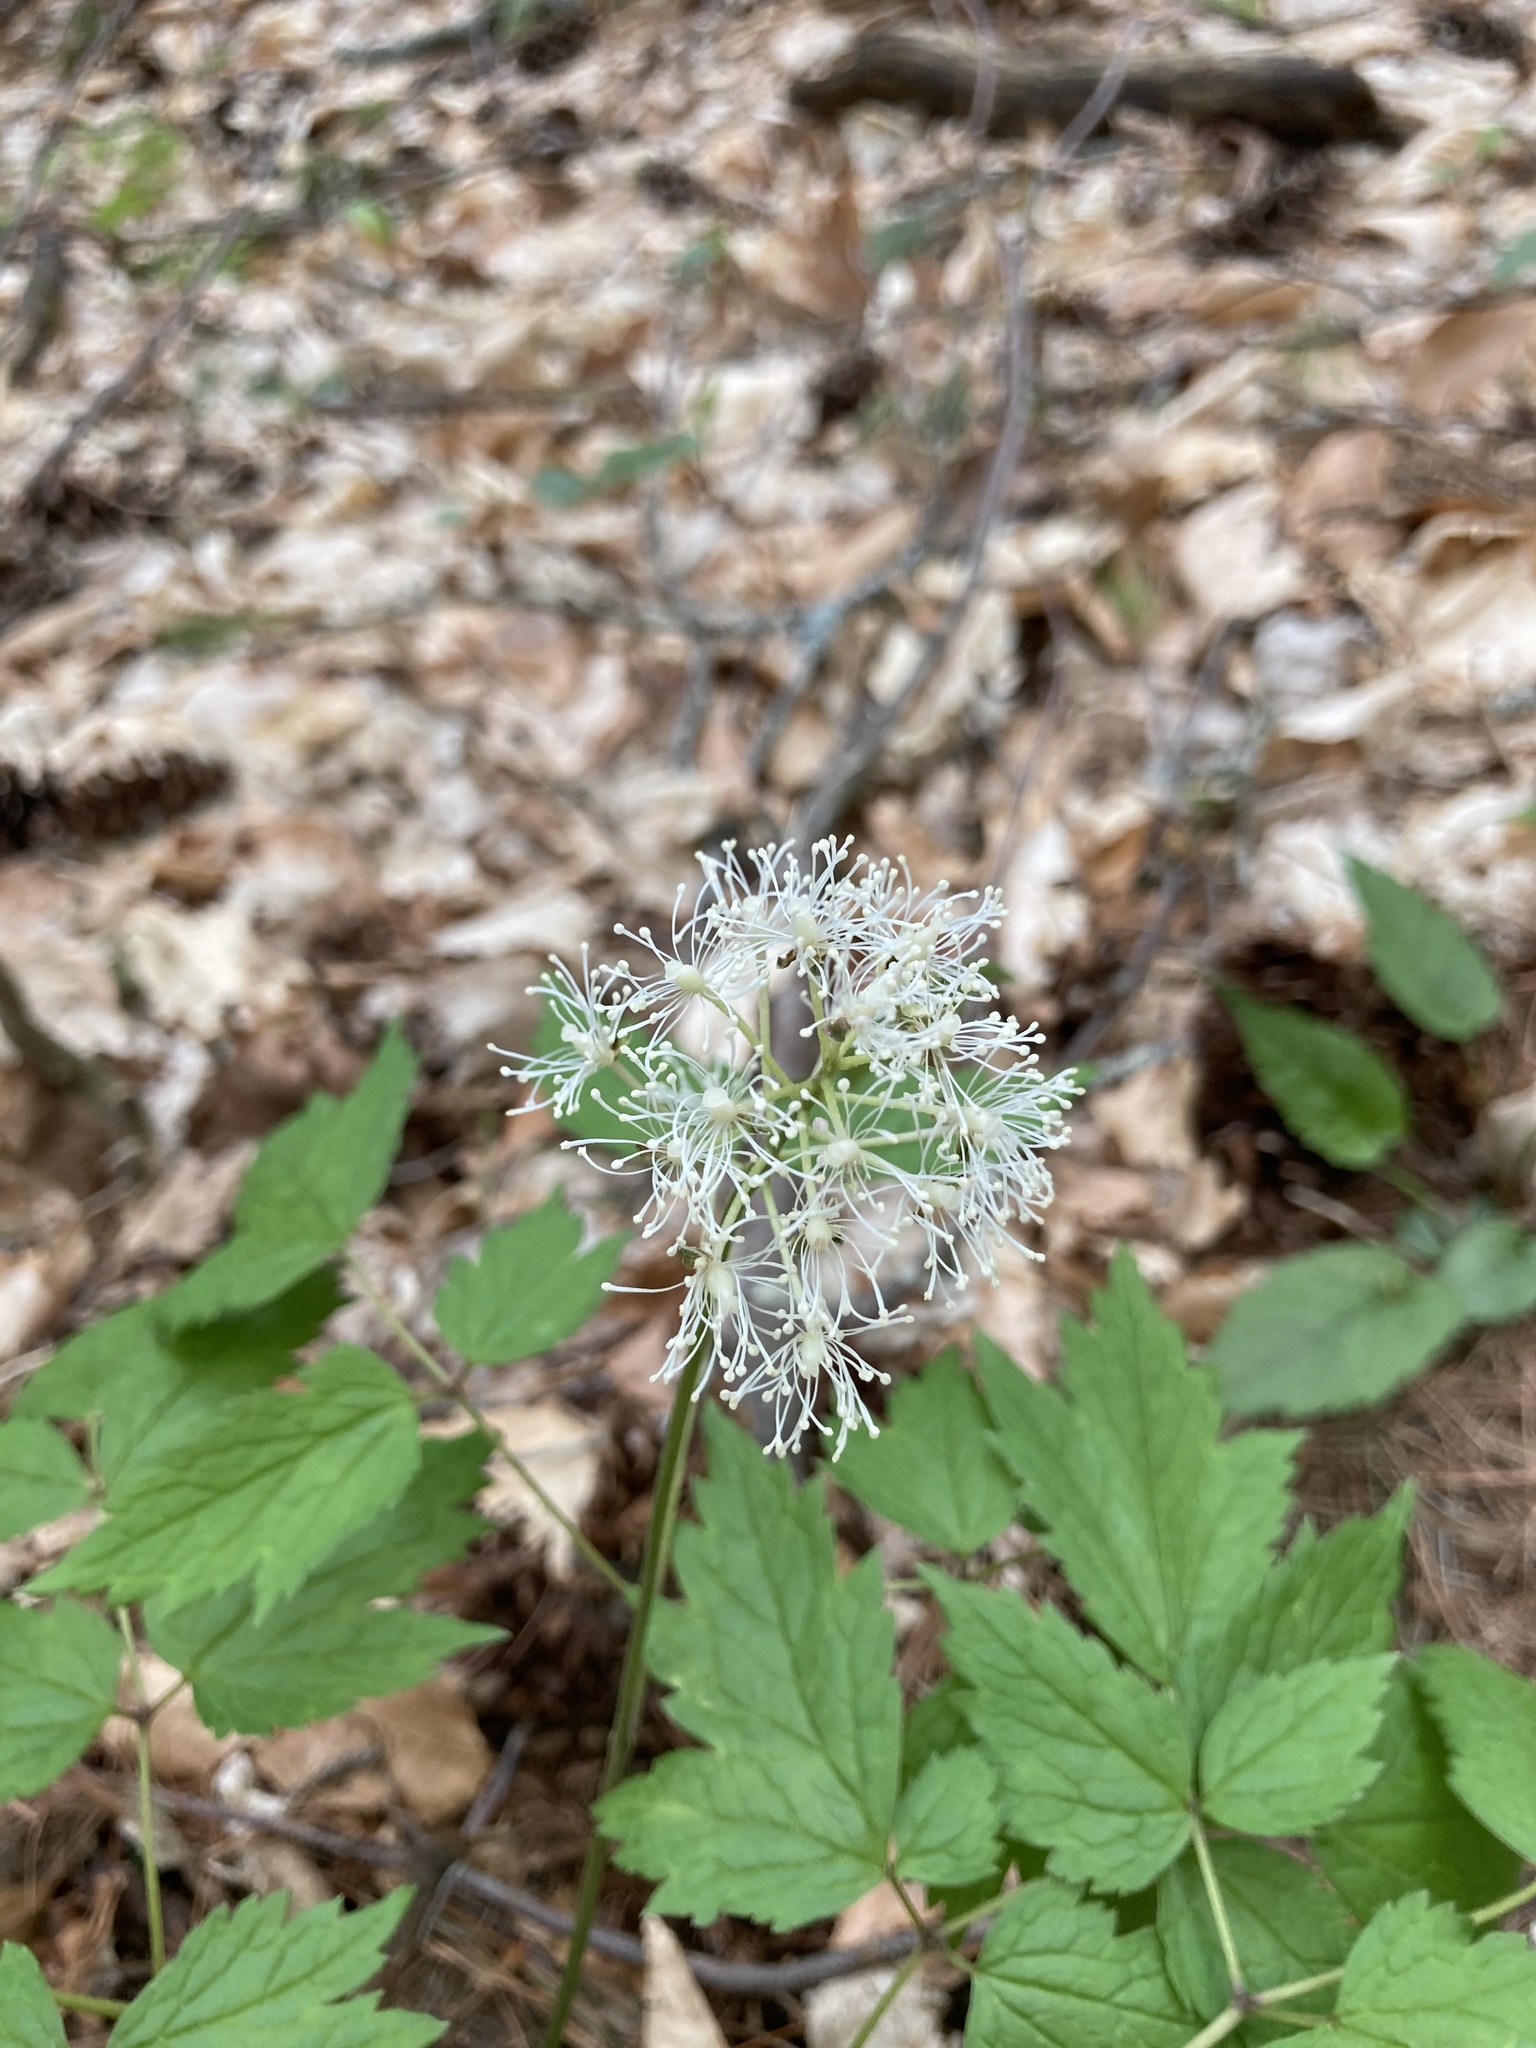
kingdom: Plantae
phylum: Tracheophyta
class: Magnoliopsida
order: Ranunculales
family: Ranunculaceae
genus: Actaea
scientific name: Actaea rubra
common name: Red baneberry
